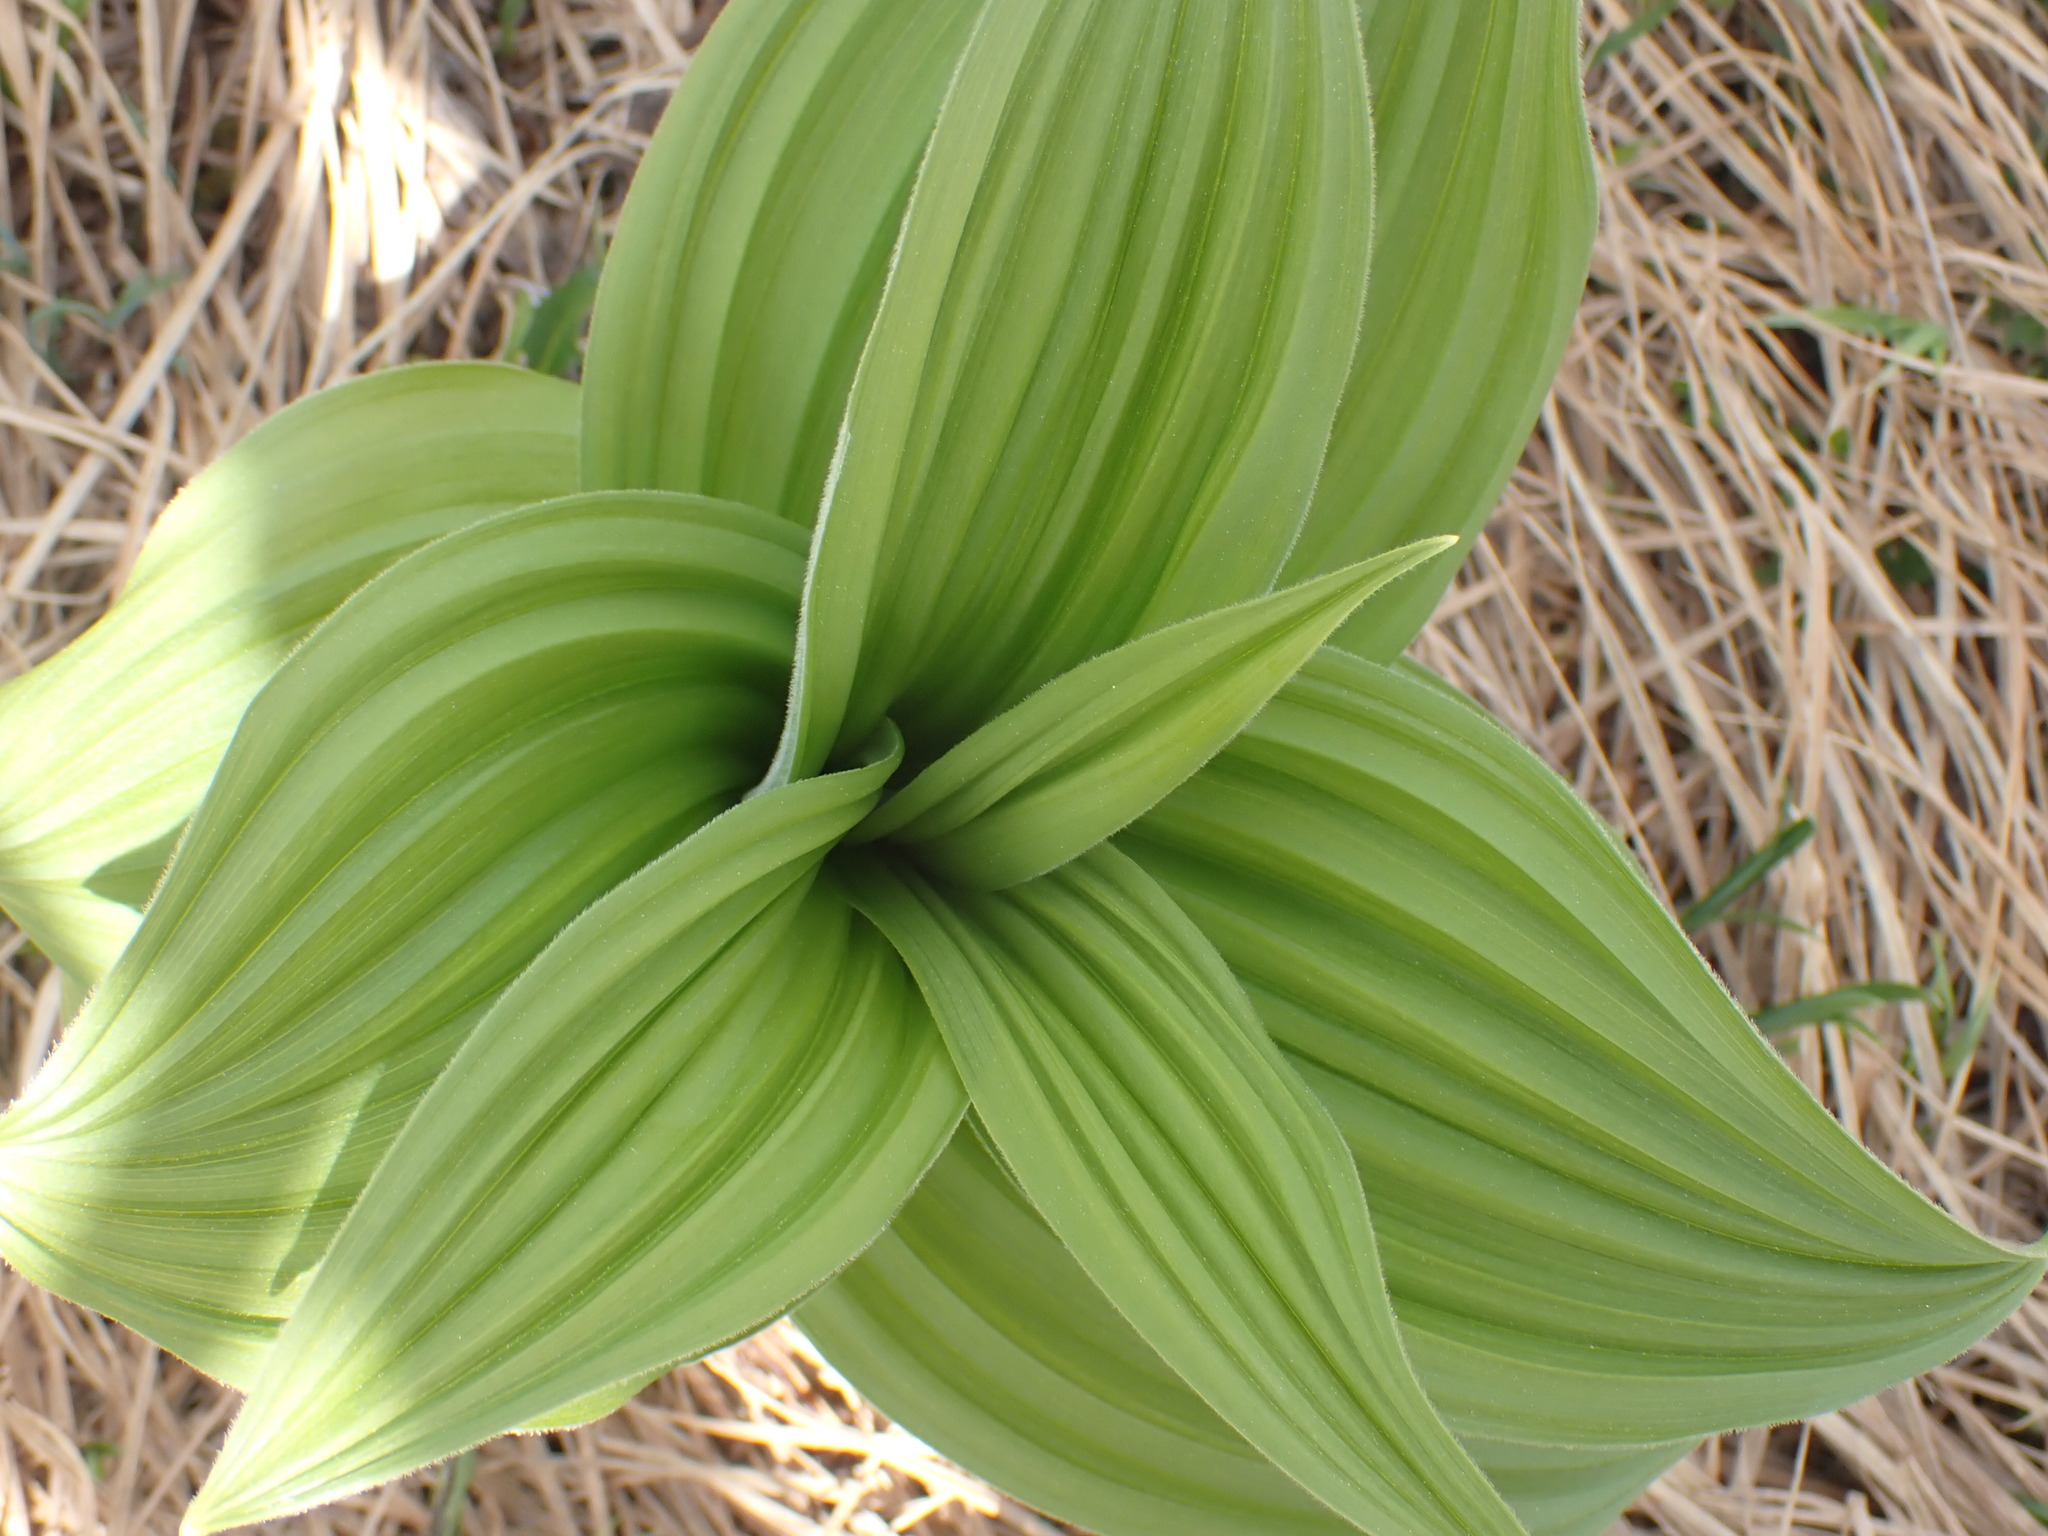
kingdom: Plantae
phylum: Tracheophyta
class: Liliopsida
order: Liliales
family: Melanthiaceae
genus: Veratrum
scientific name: Veratrum viride
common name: American false hellebore
